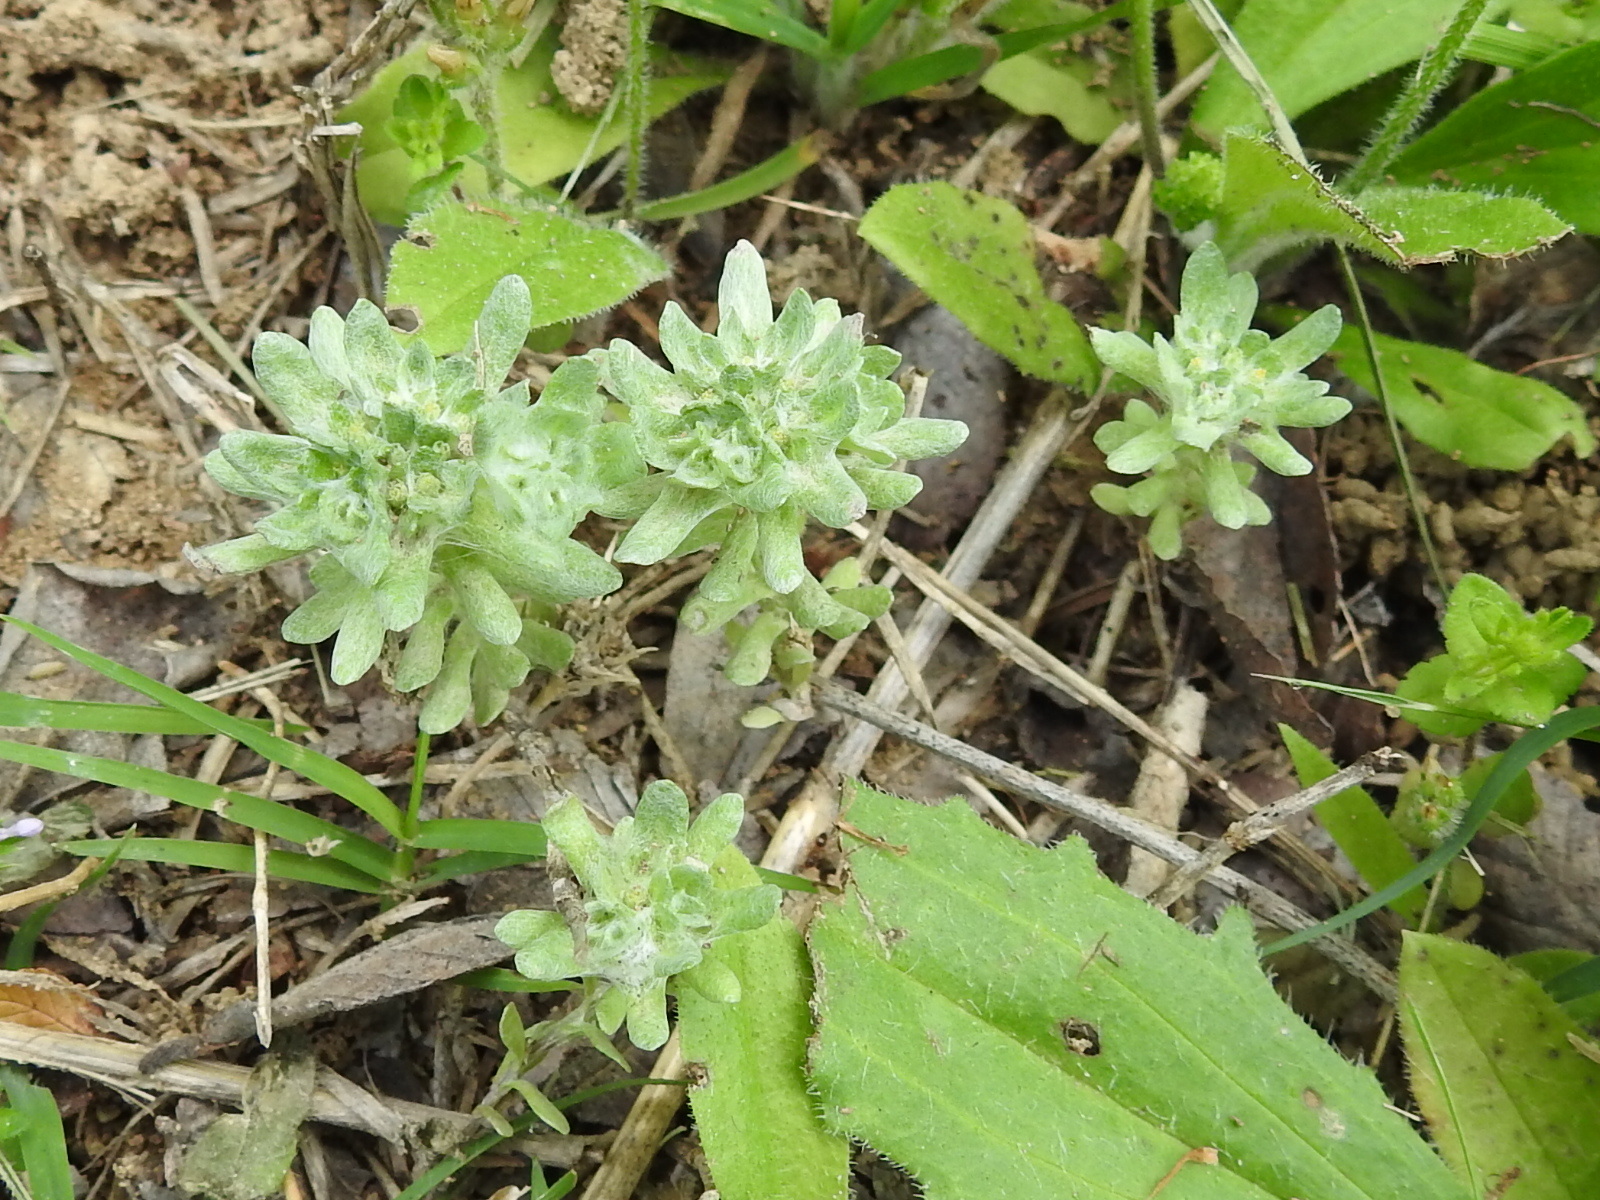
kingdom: Plantae
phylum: Tracheophyta
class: Magnoliopsida
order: Asterales
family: Asteraceae
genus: Diaperia
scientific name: Diaperia prolifera
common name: Big-head rabbit-tobacco
